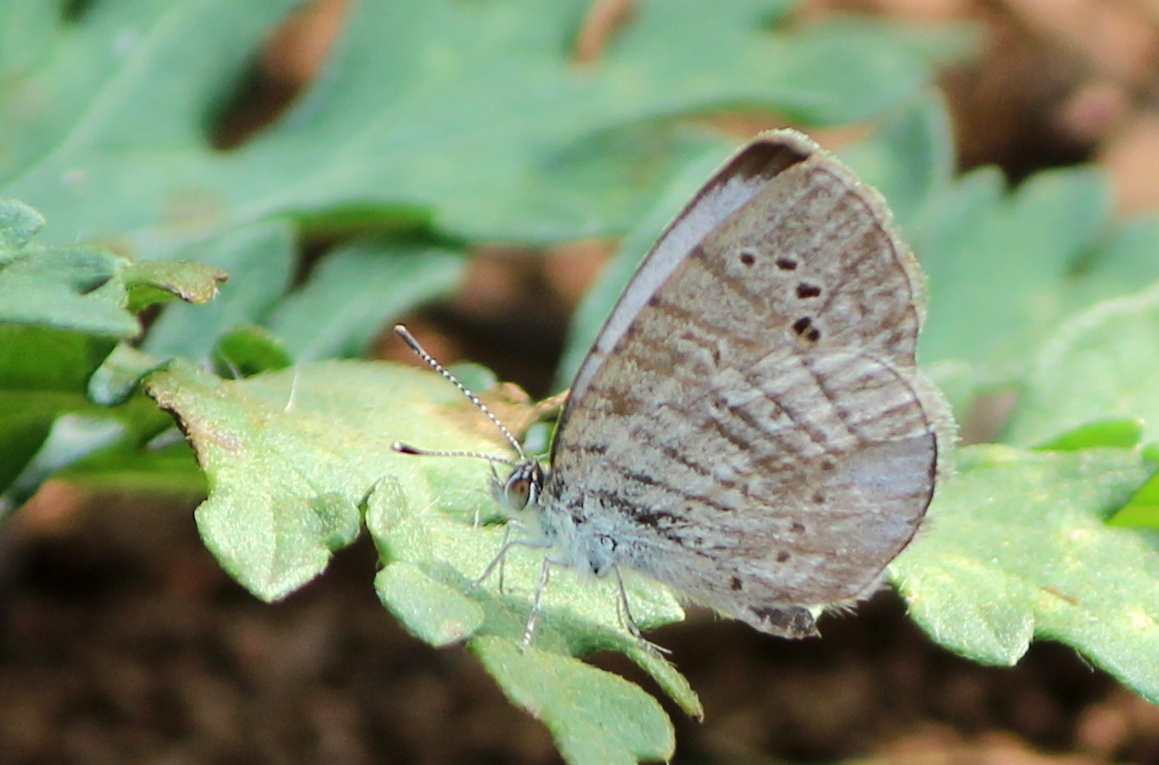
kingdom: Animalia
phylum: Arthropoda
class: Insecta
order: Lepidoptera
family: Lycaenidae
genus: Pseudozizeeria
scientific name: Pseudozizeeria maha
